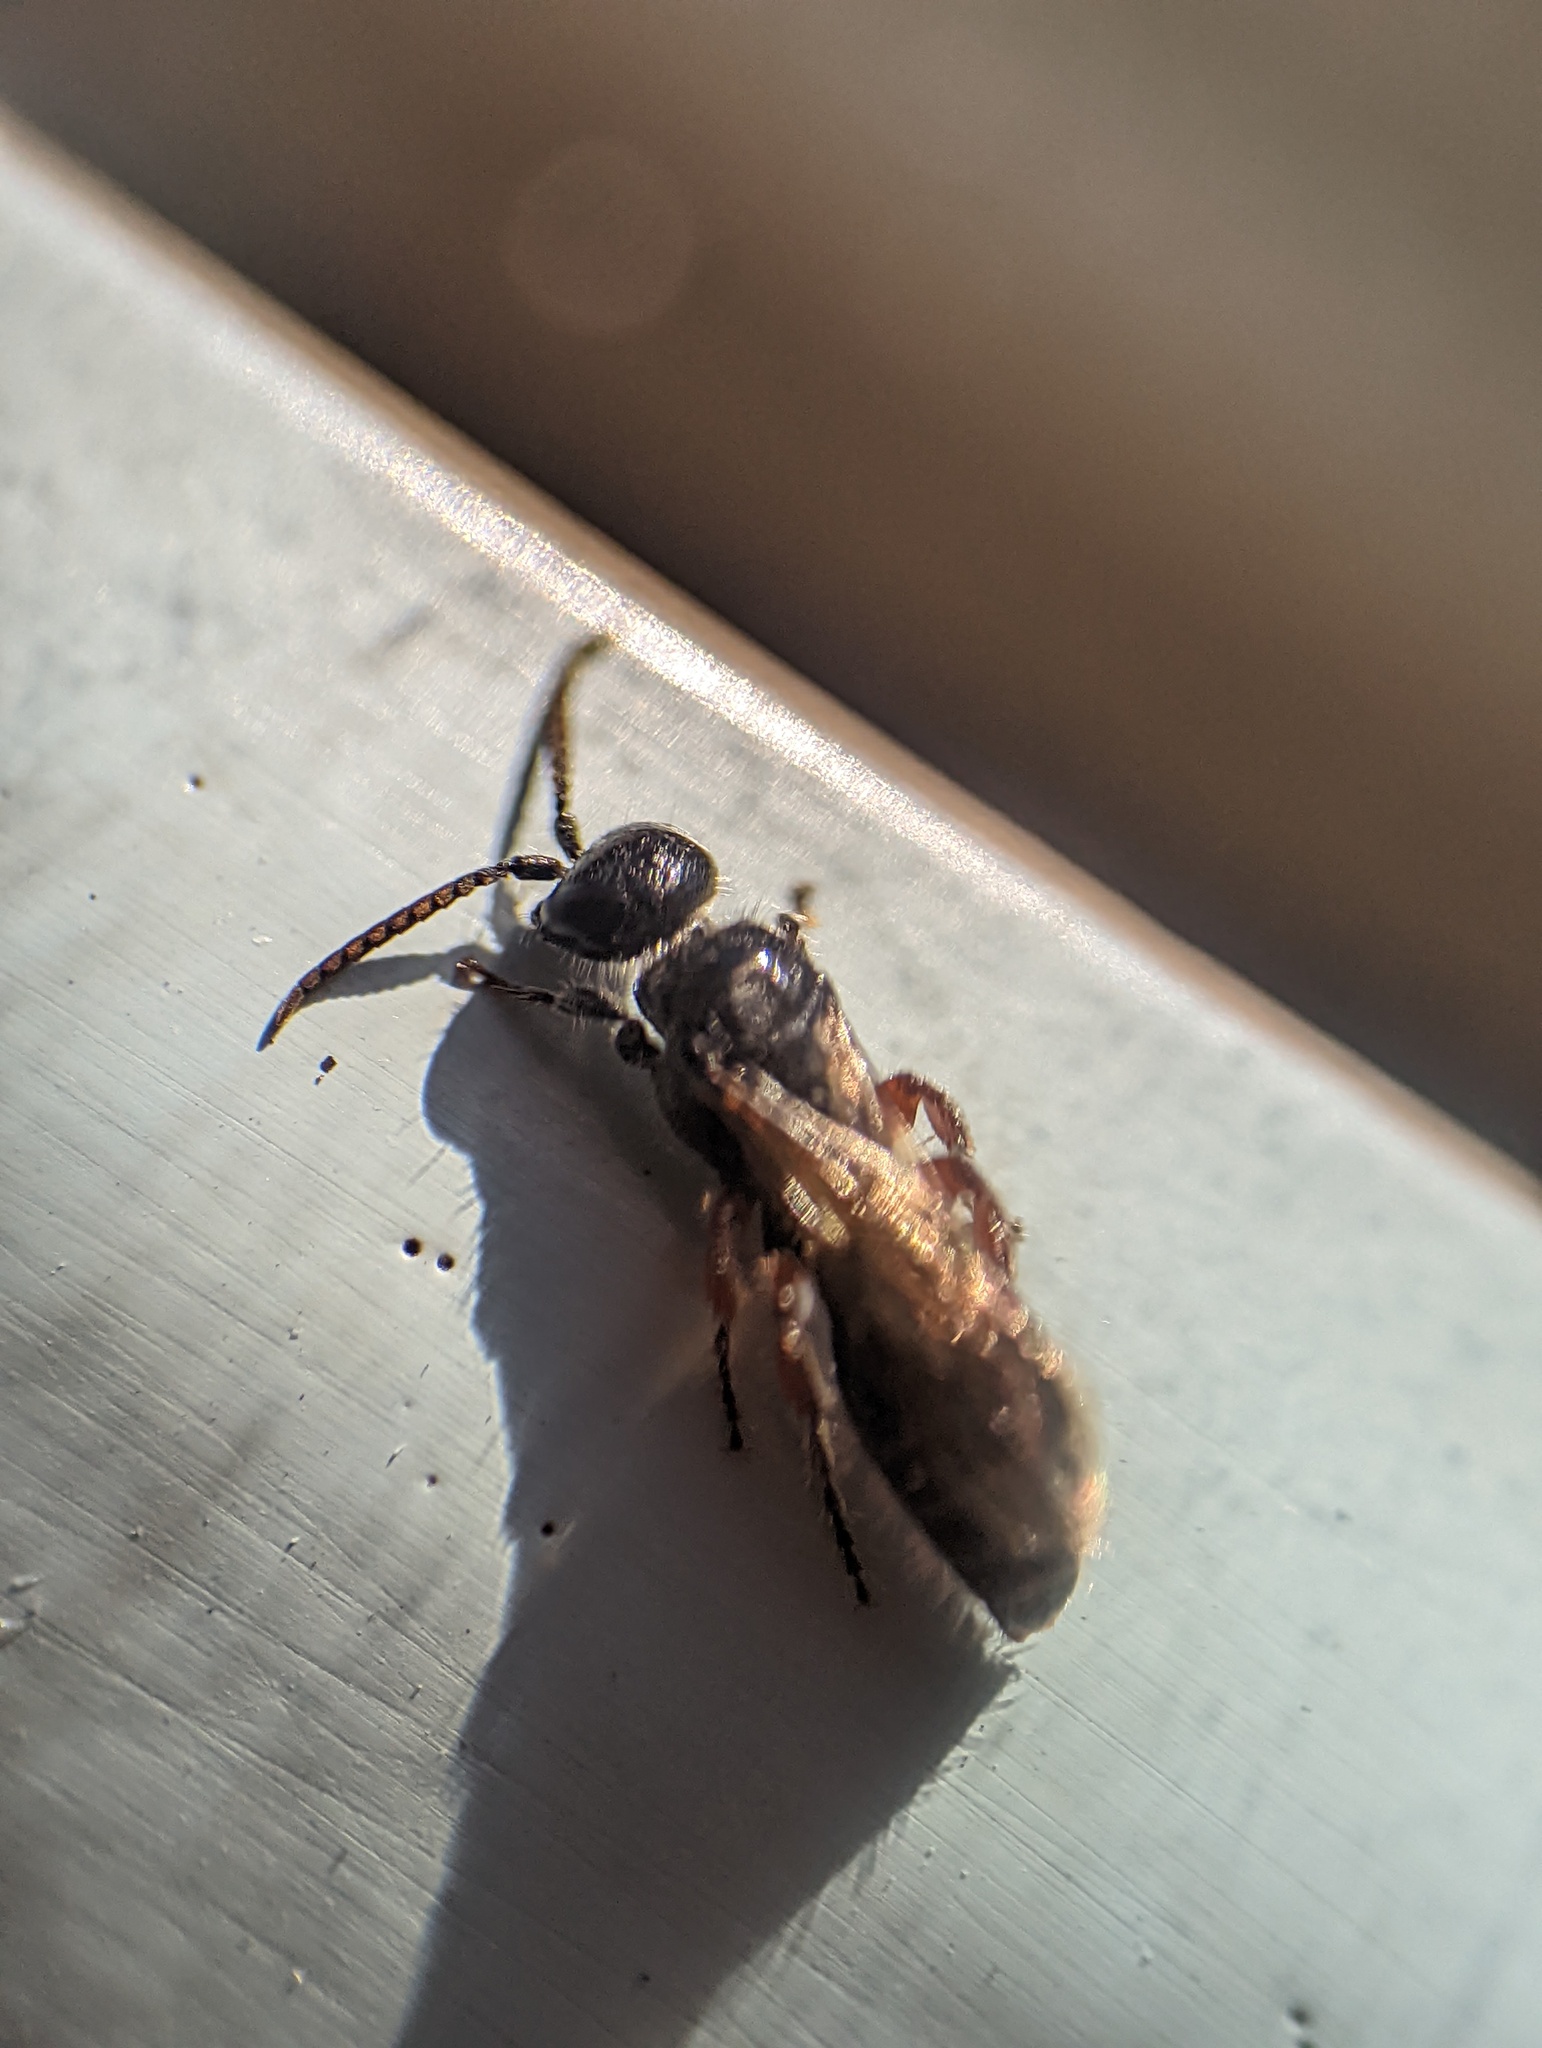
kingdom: Animalia
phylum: Arthropoda
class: Insecta
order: Hymenoptera
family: Tiphiidae
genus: Tiphia
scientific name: Tiphia femorata
